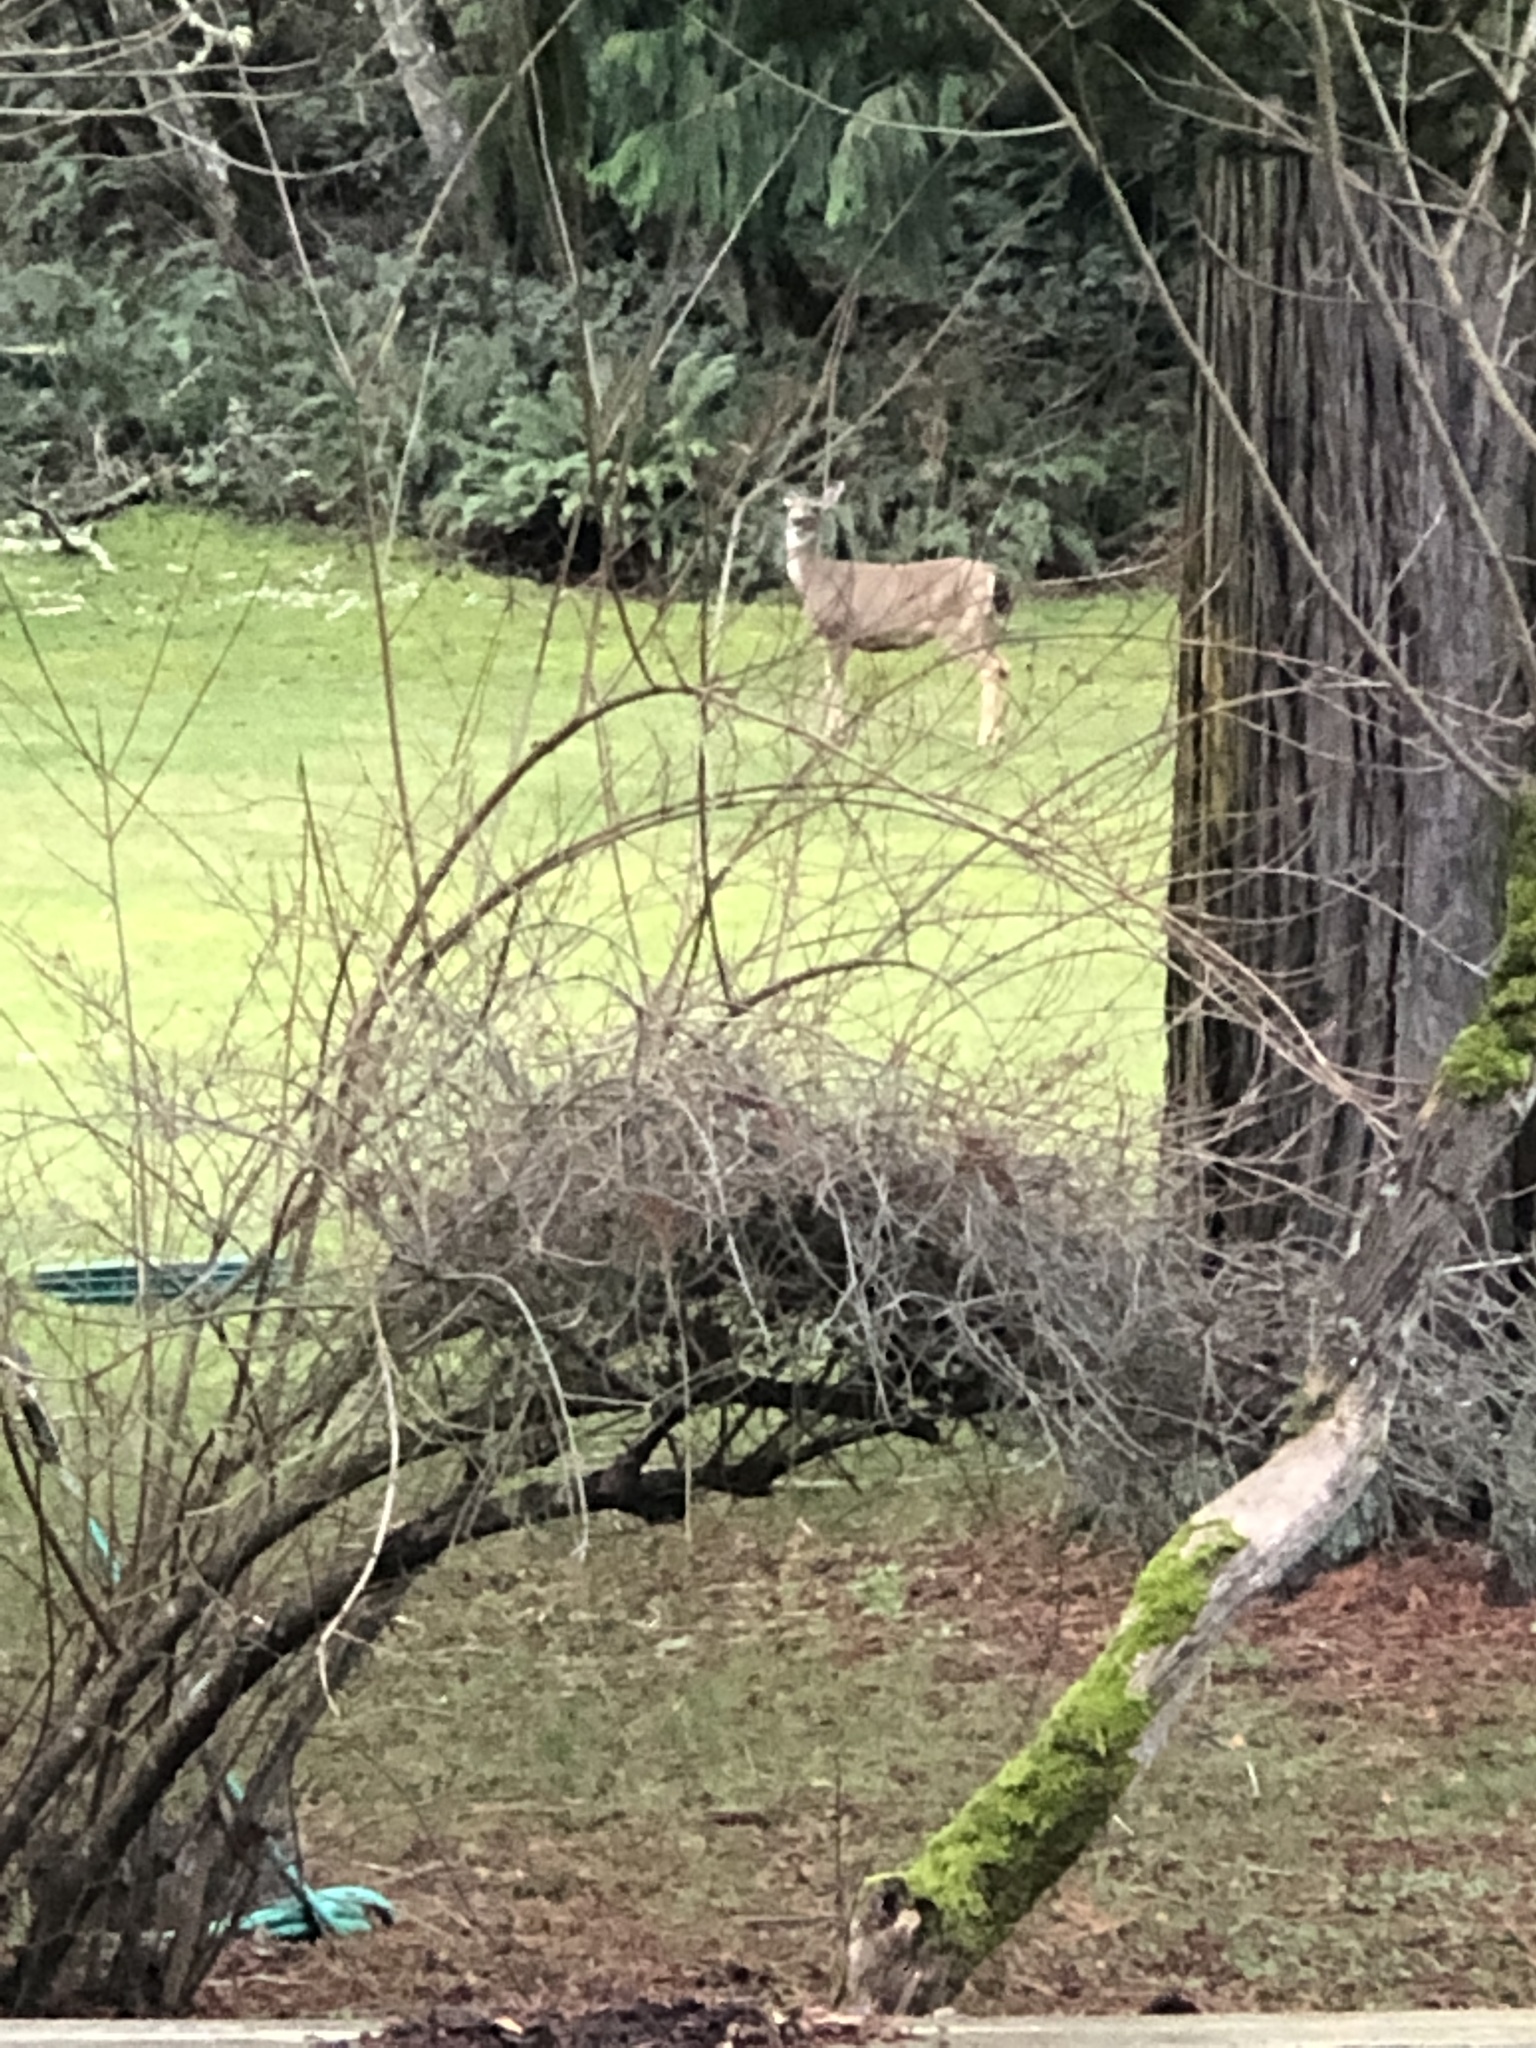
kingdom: Animalia
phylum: Chordata
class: Mammalia
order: Artiodactyla
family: Cervidae
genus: Odocoileus
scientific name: Odocoileus hemionus
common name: Mule deer
